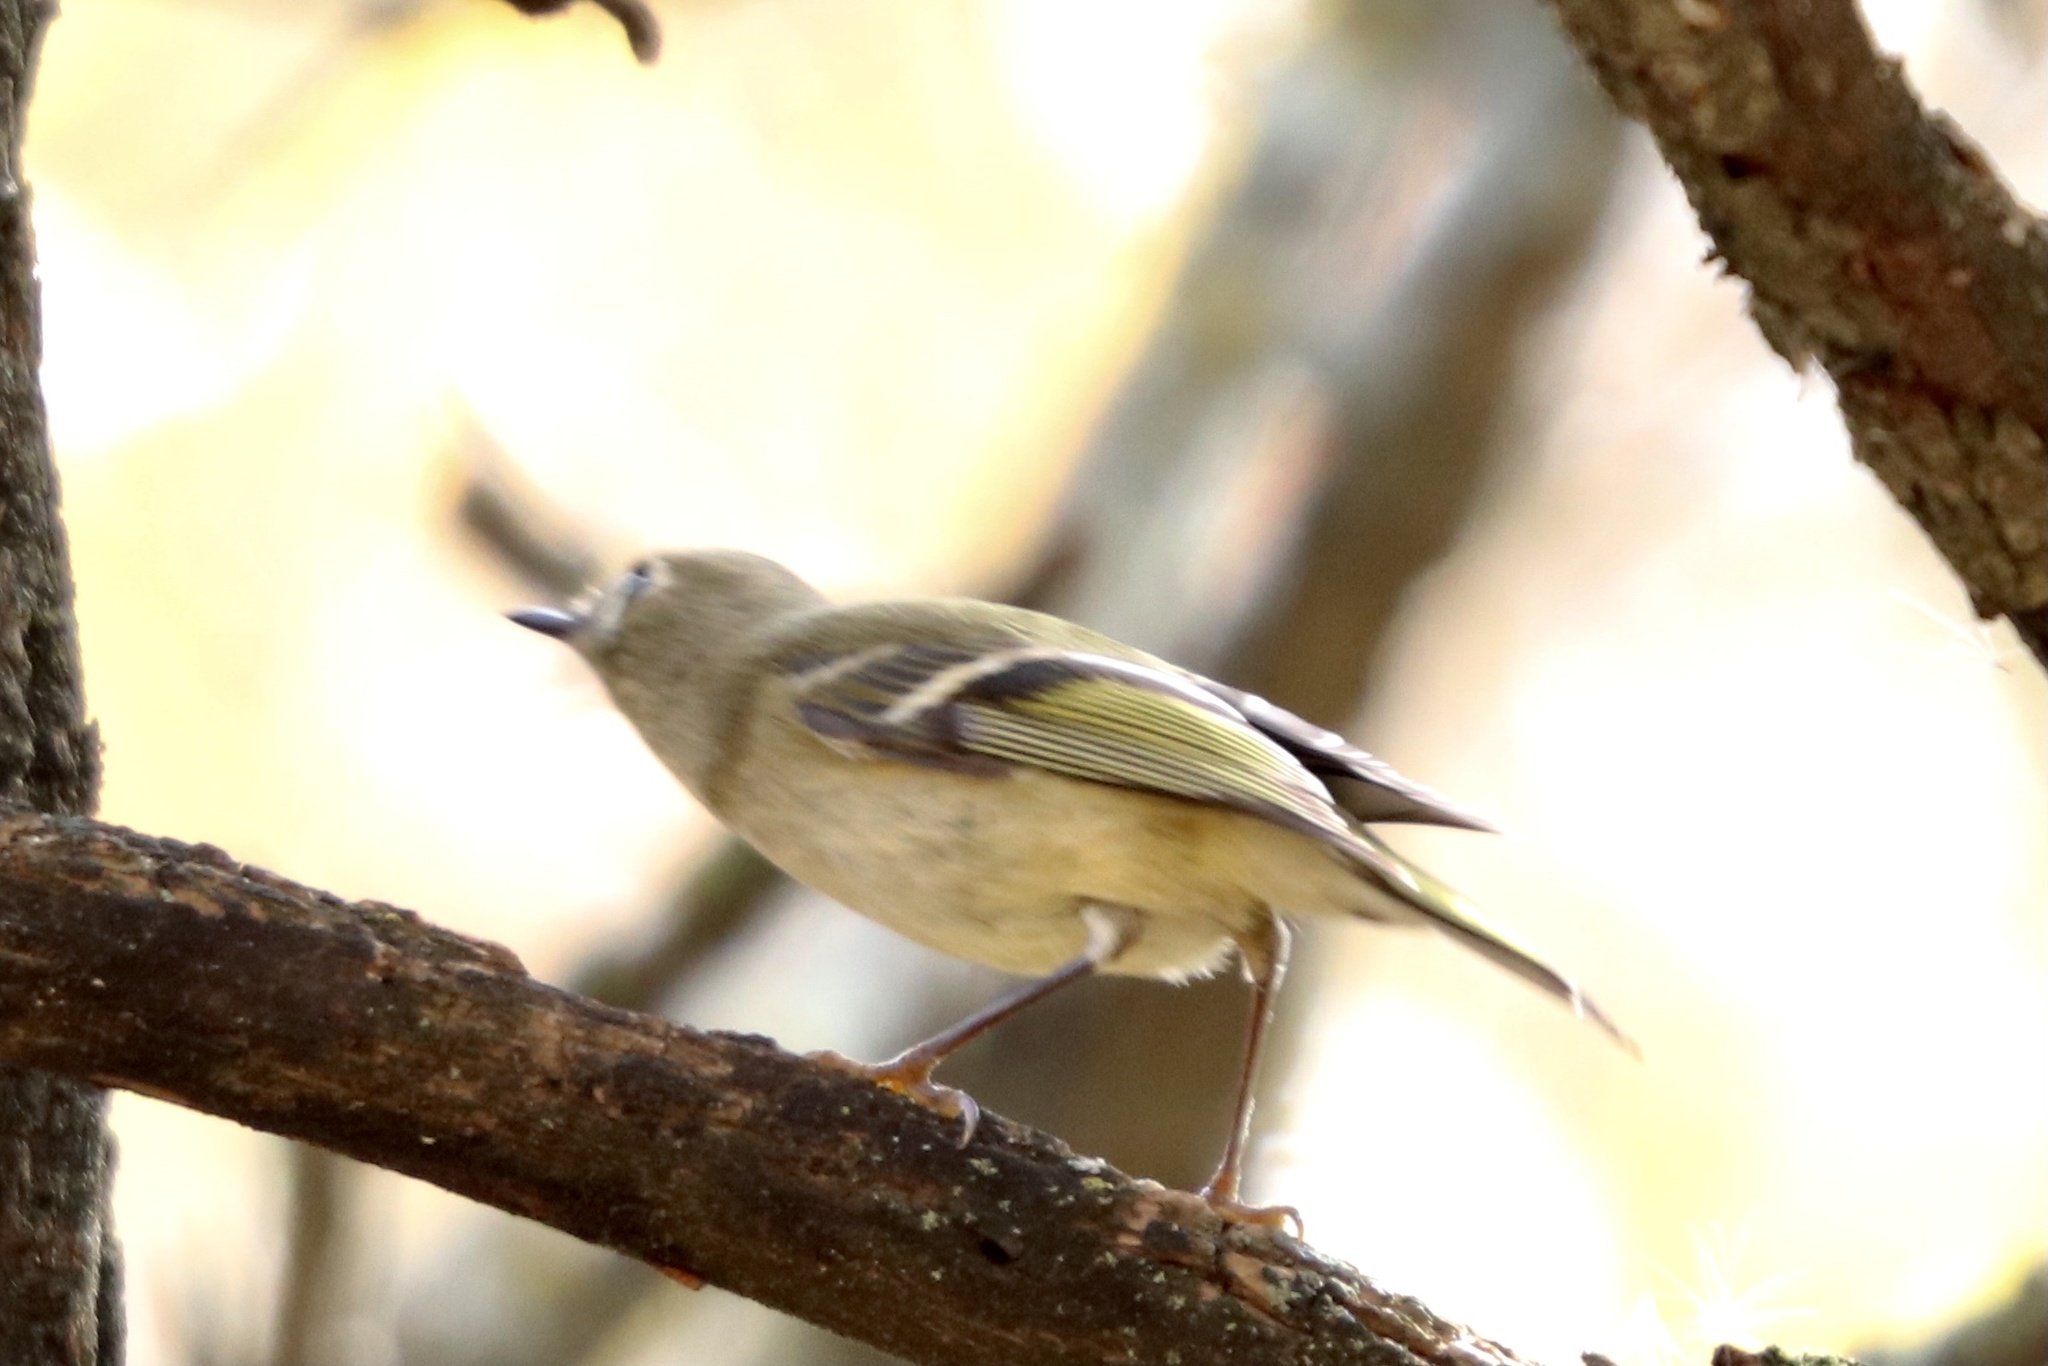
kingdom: Animalia
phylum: Chordata
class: Aves
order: Passeriformes
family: Regulidae
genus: Regulus
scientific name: Regulus calendula
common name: Ruby-crowned kinglet
